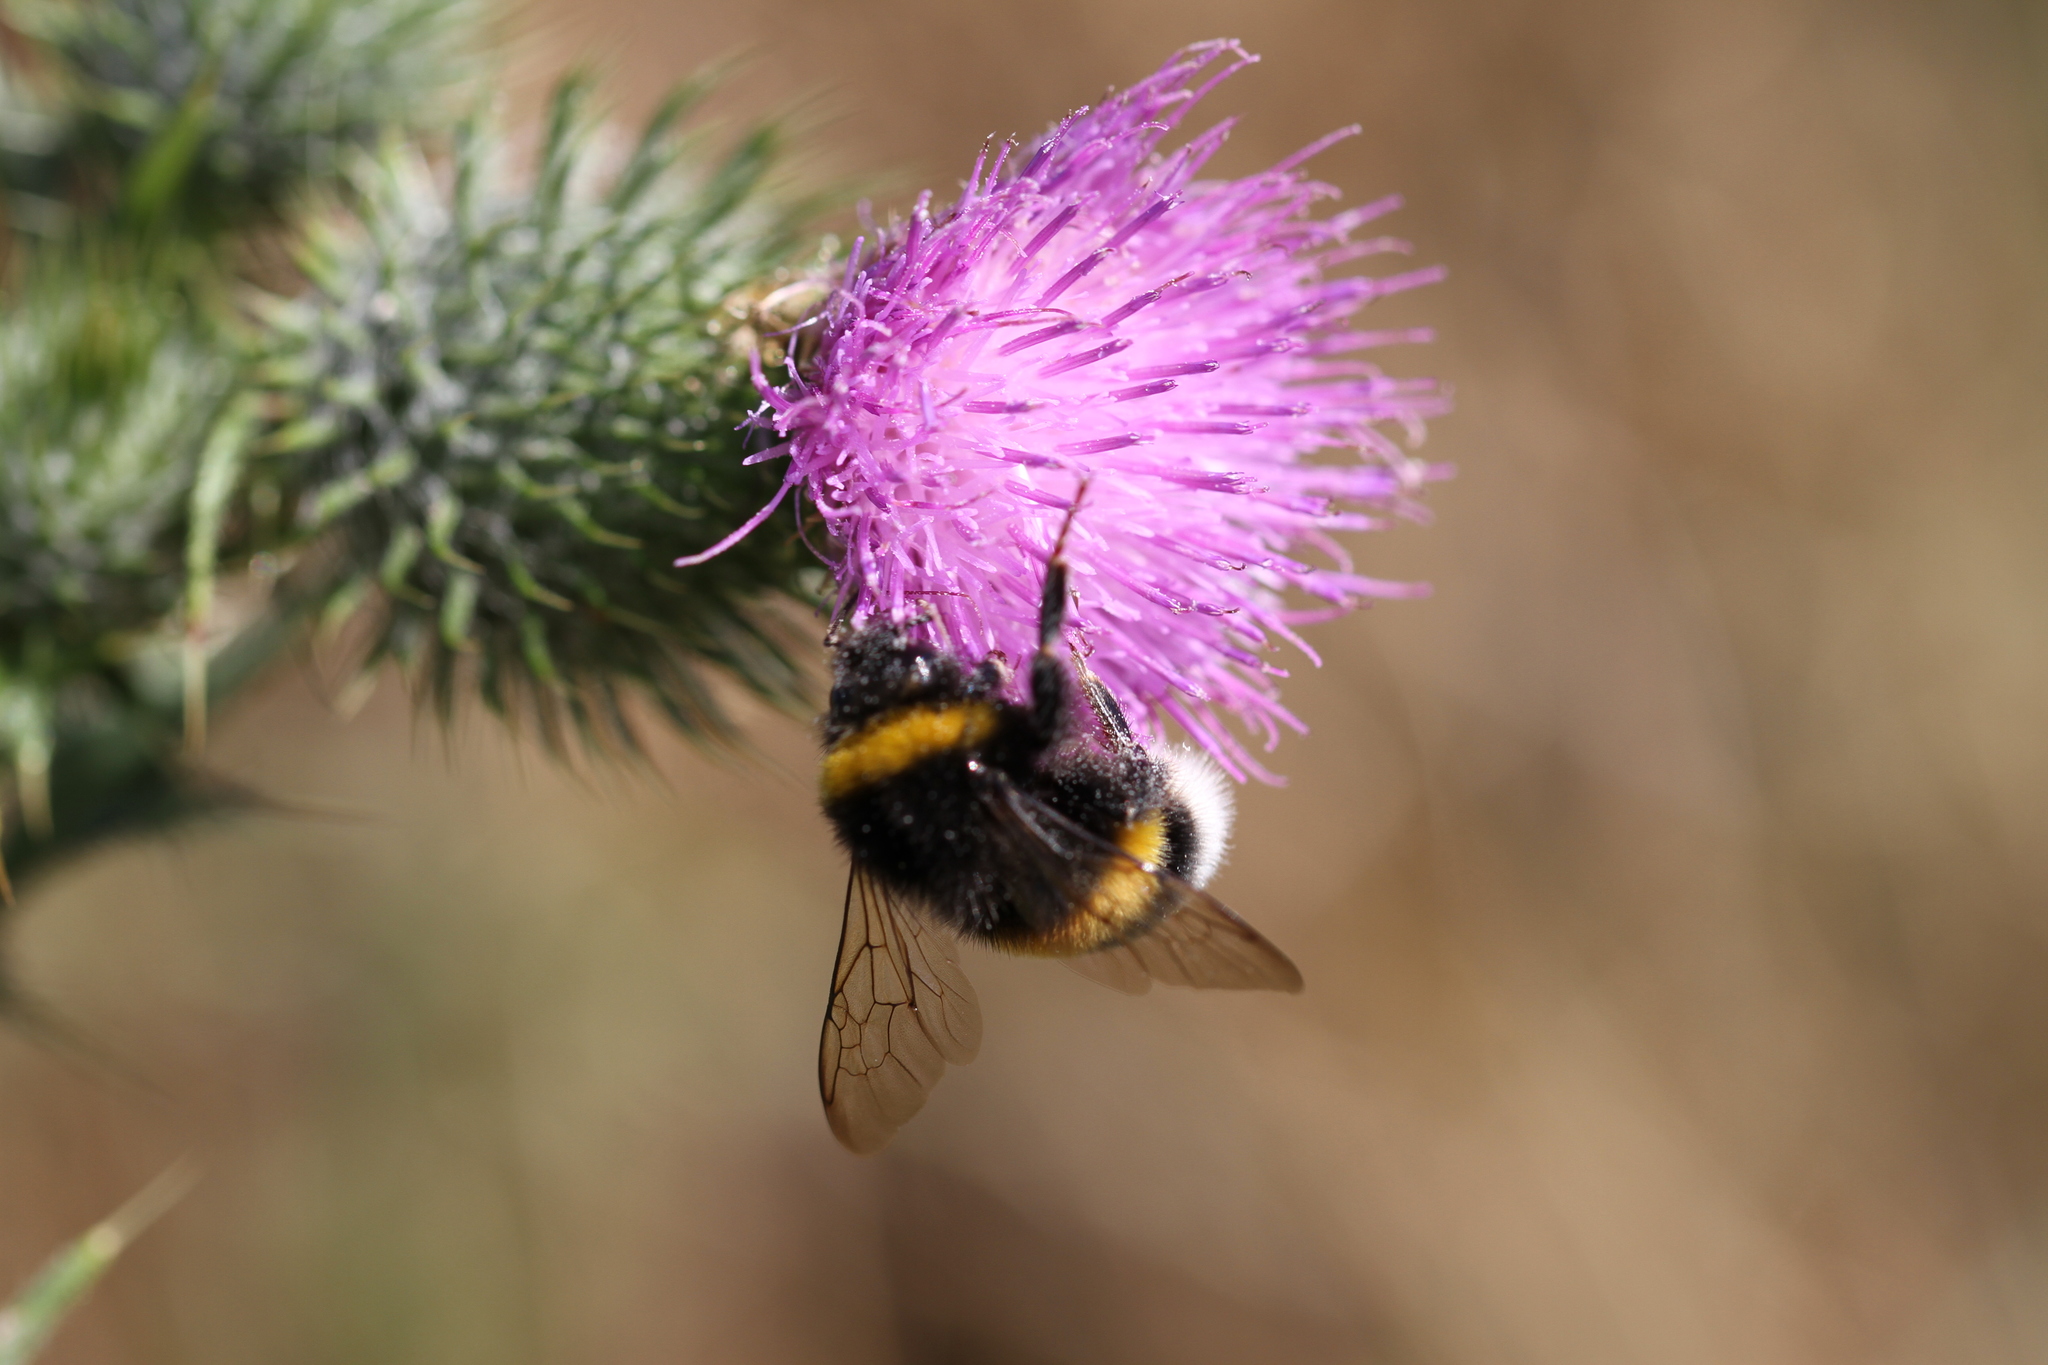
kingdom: Animalia
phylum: Arthropoda
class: Insecta
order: Hymenoptera
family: Apidae
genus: Bombus
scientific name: Bombus
